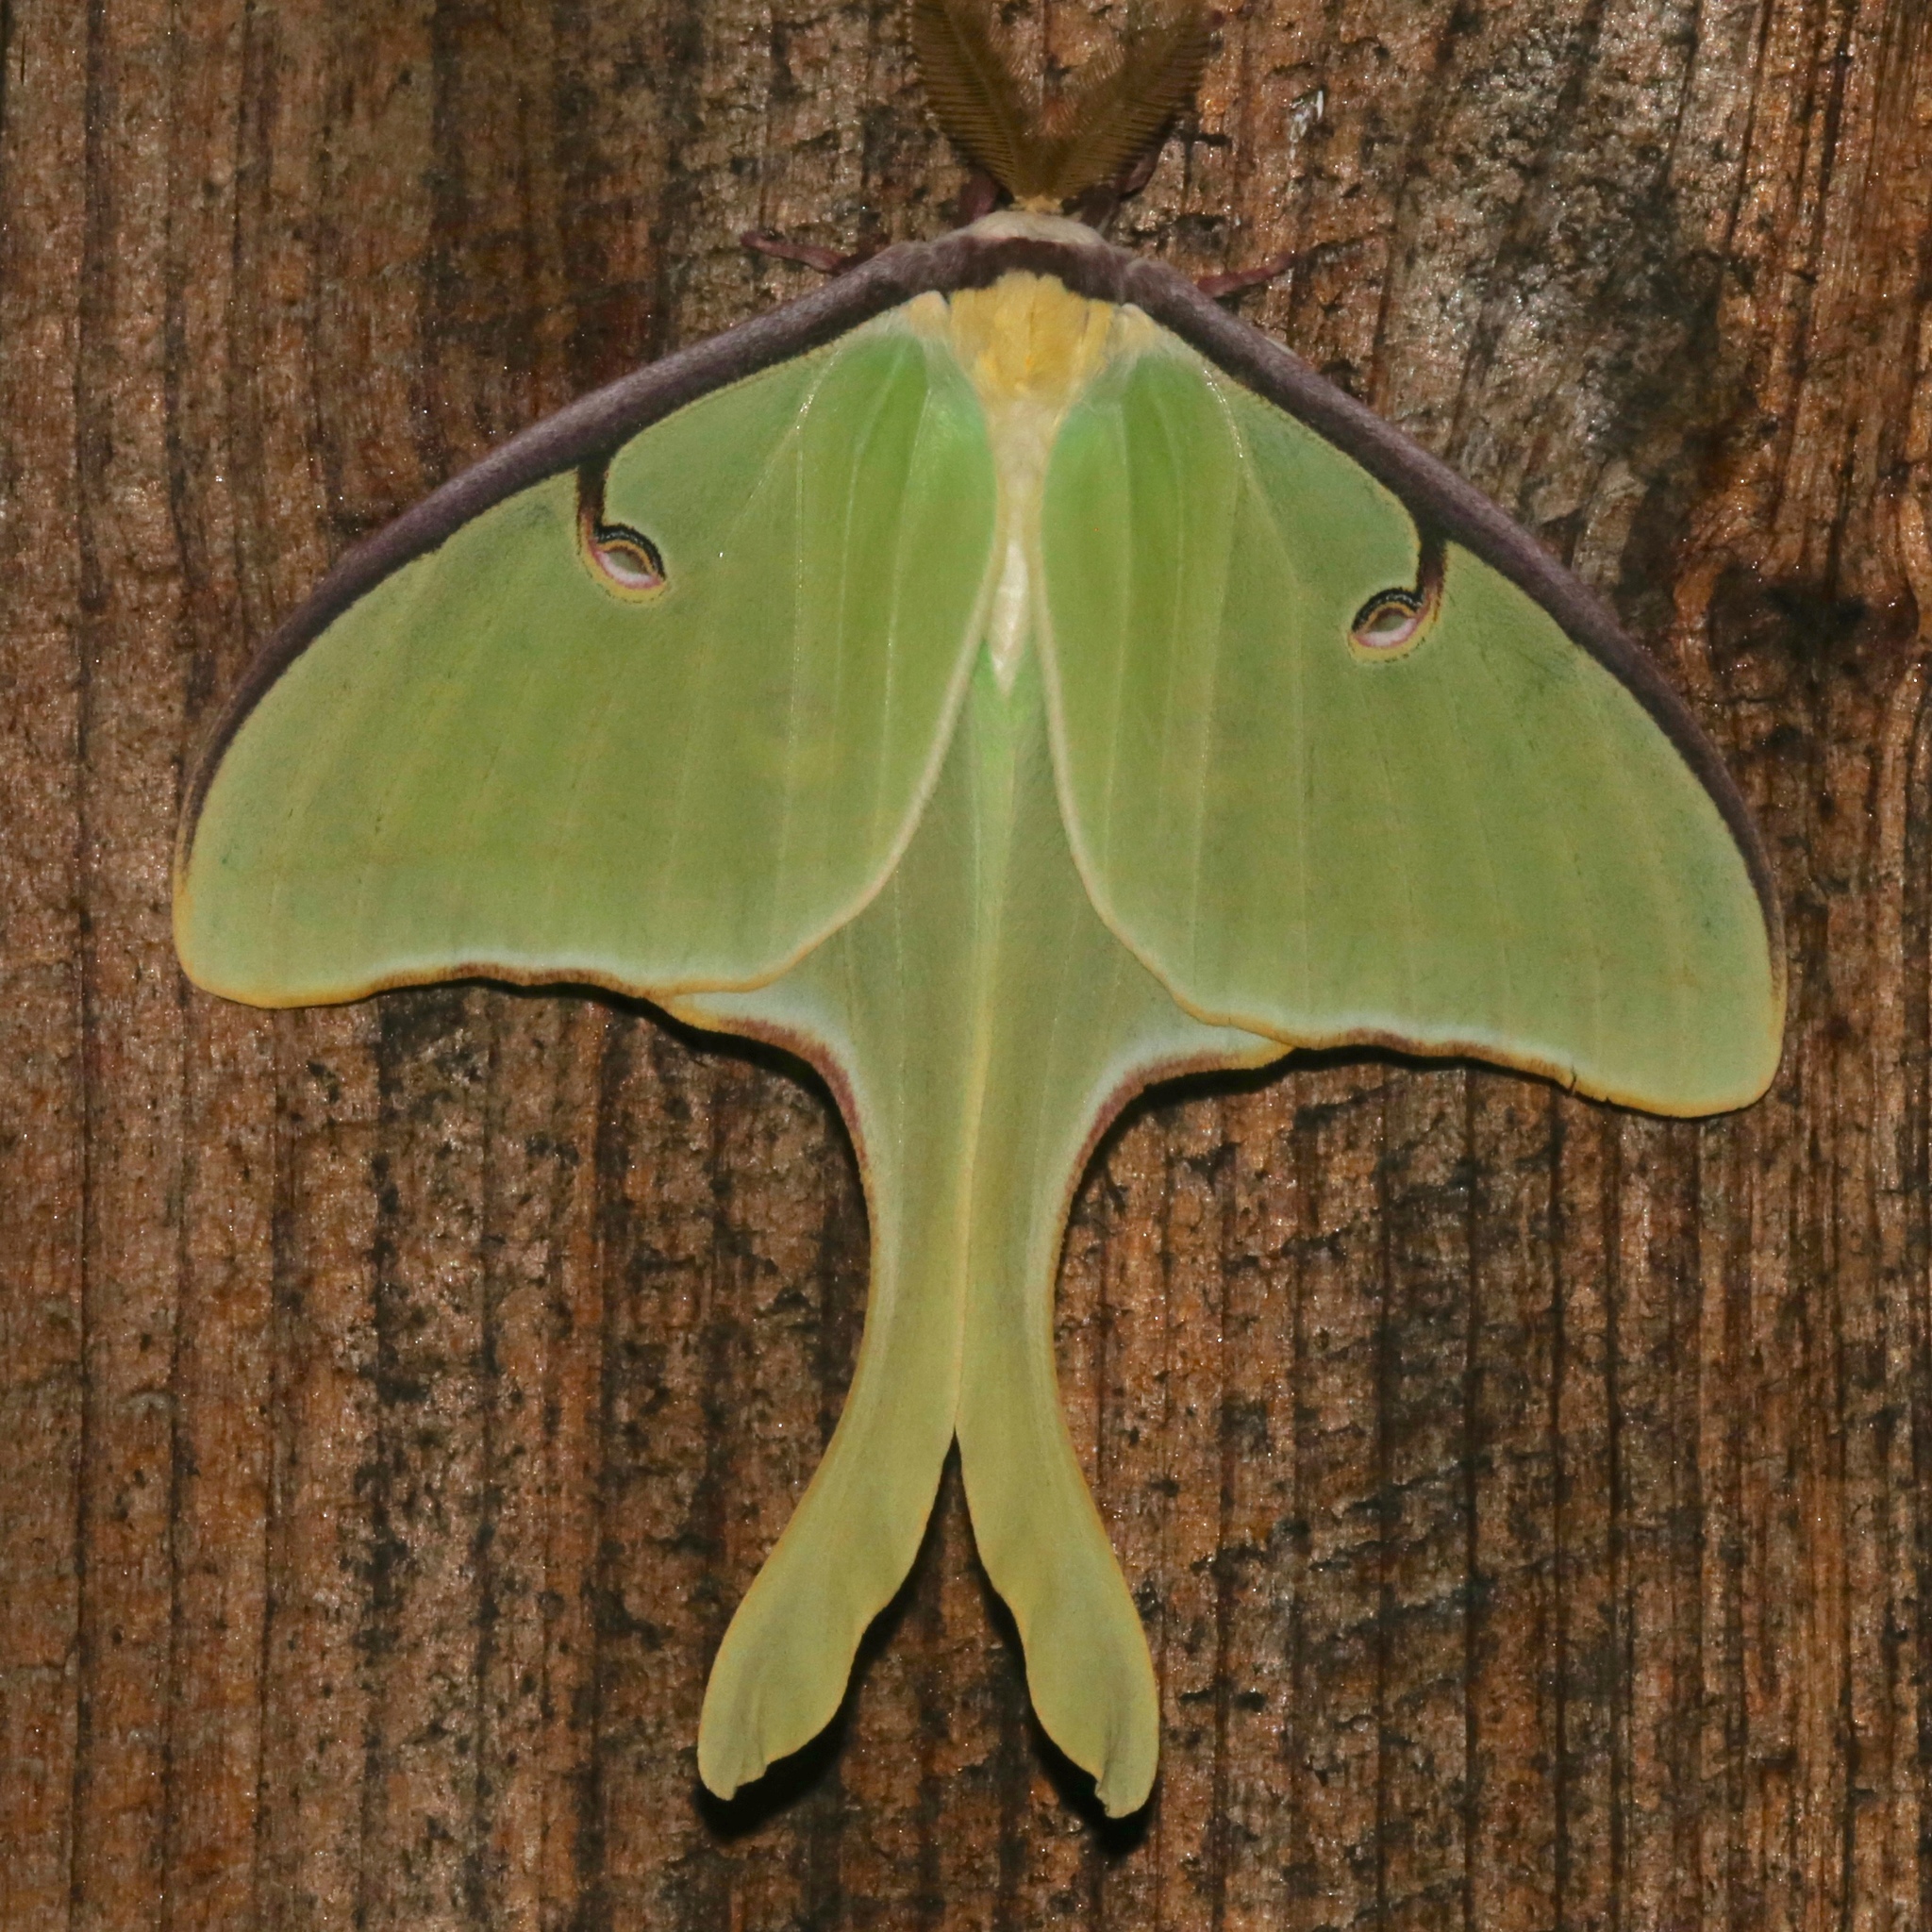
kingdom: Animalia
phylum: Arthropoda
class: Insecta
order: Lepidoptera
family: Saturniidae
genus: Actias
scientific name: Actias luna
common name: Luna moth
